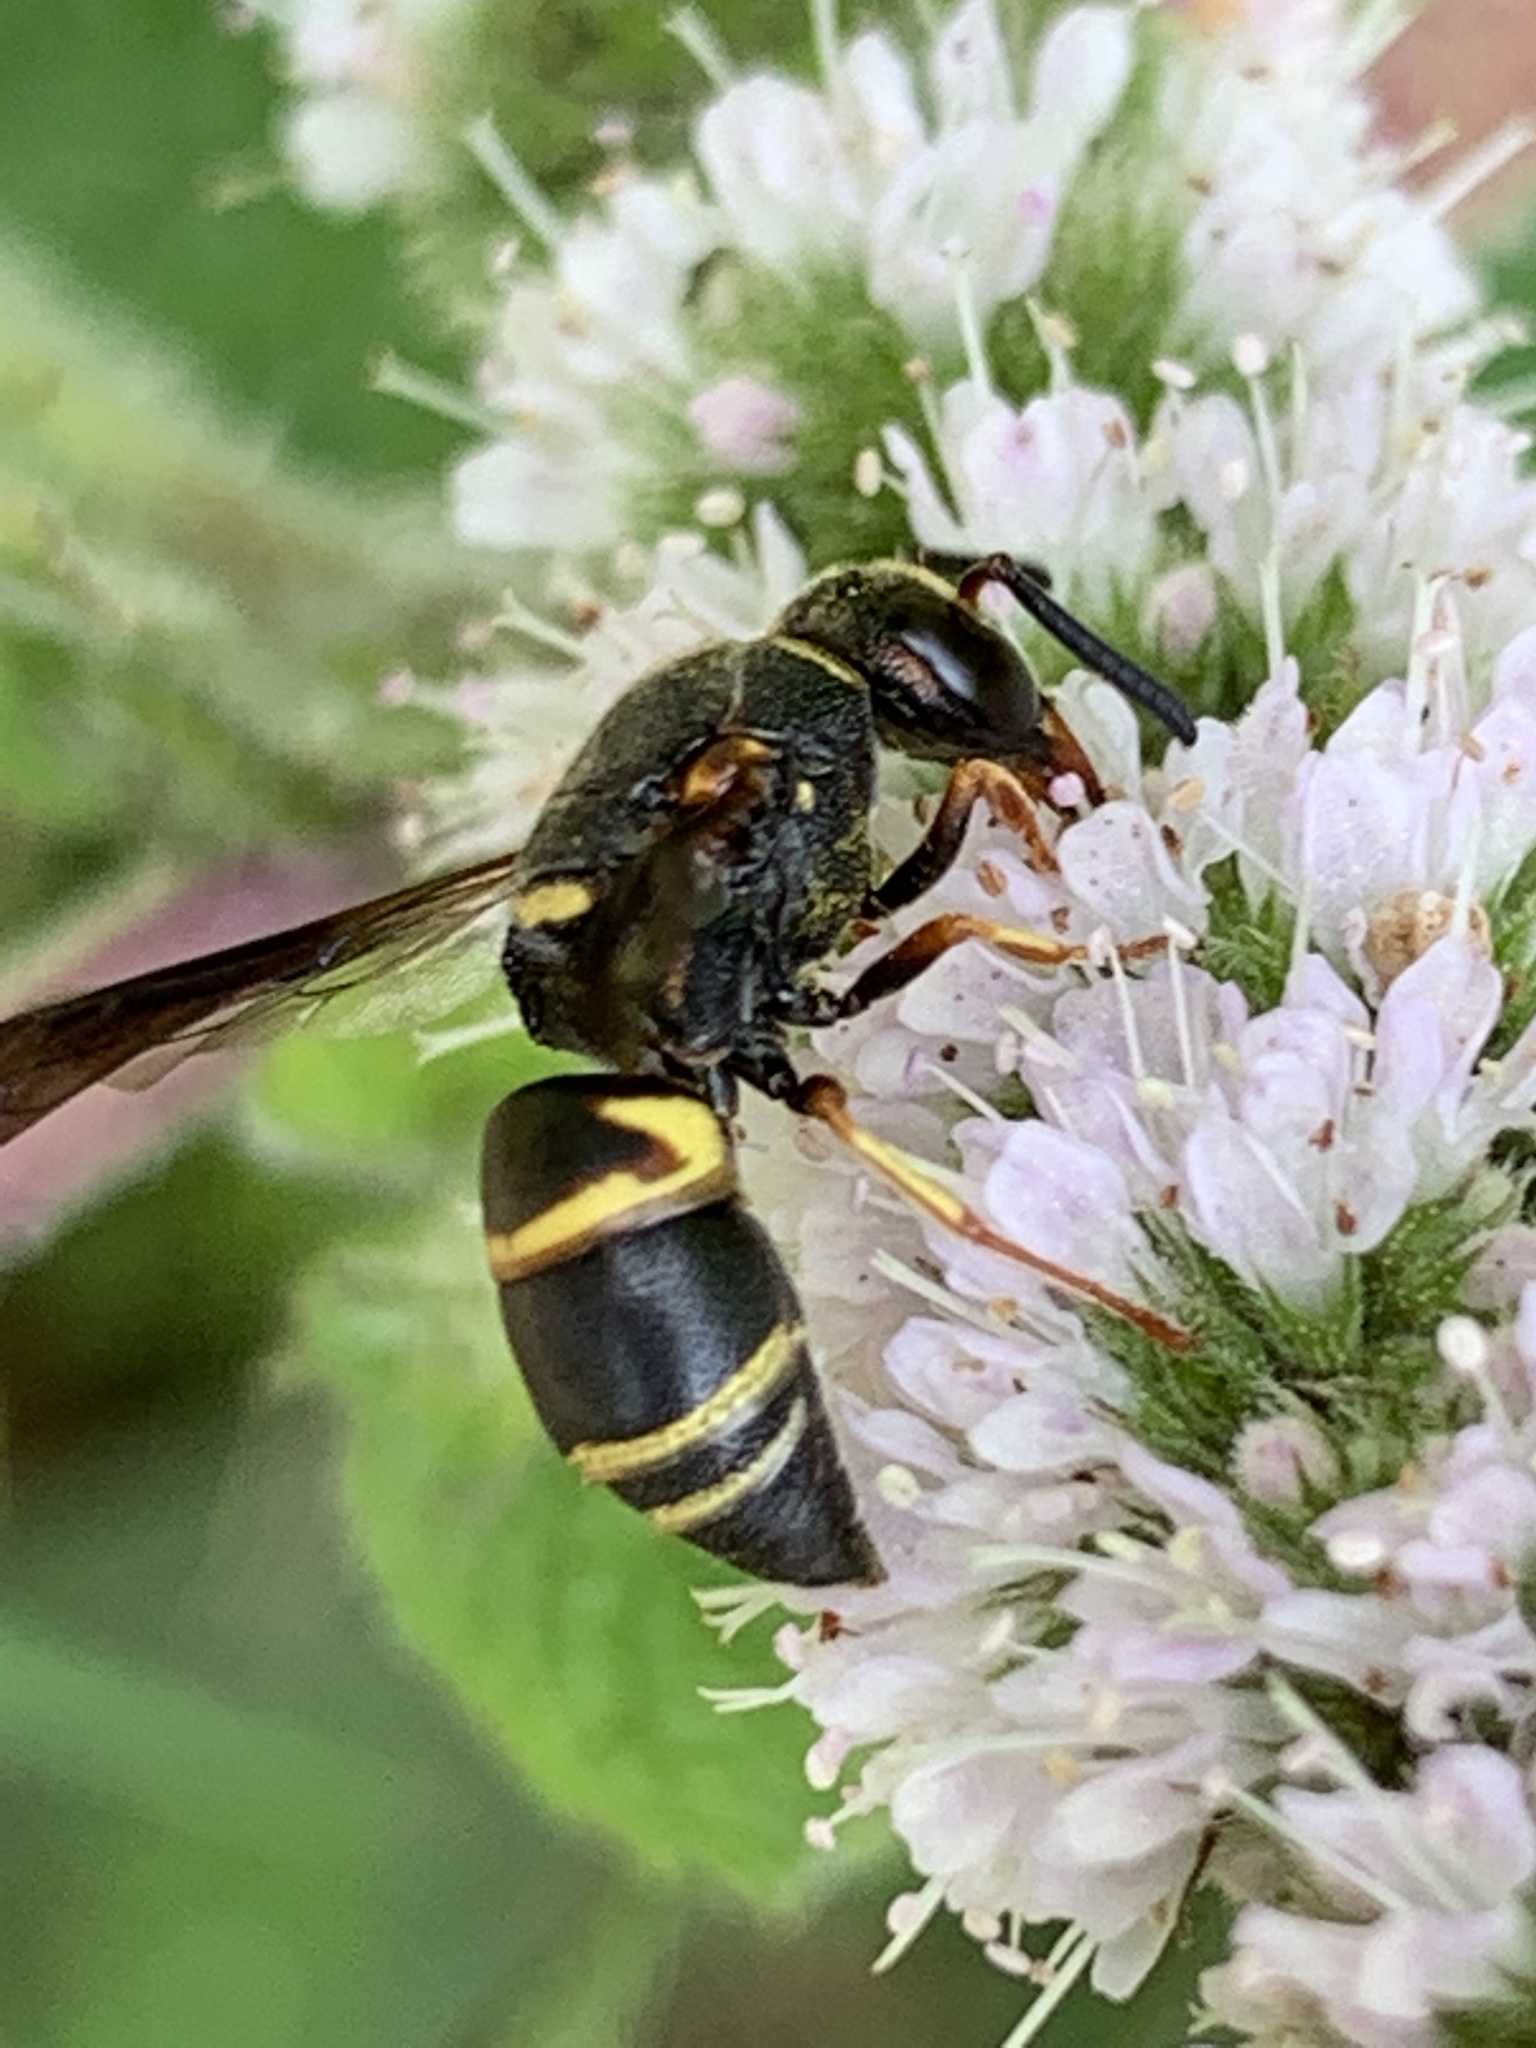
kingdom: Animalia
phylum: Arthropoda
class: Insecta
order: Hymenoptera
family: Eumenidae
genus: Euodynerus
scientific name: Euodynerus hidalgo
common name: Wasp
